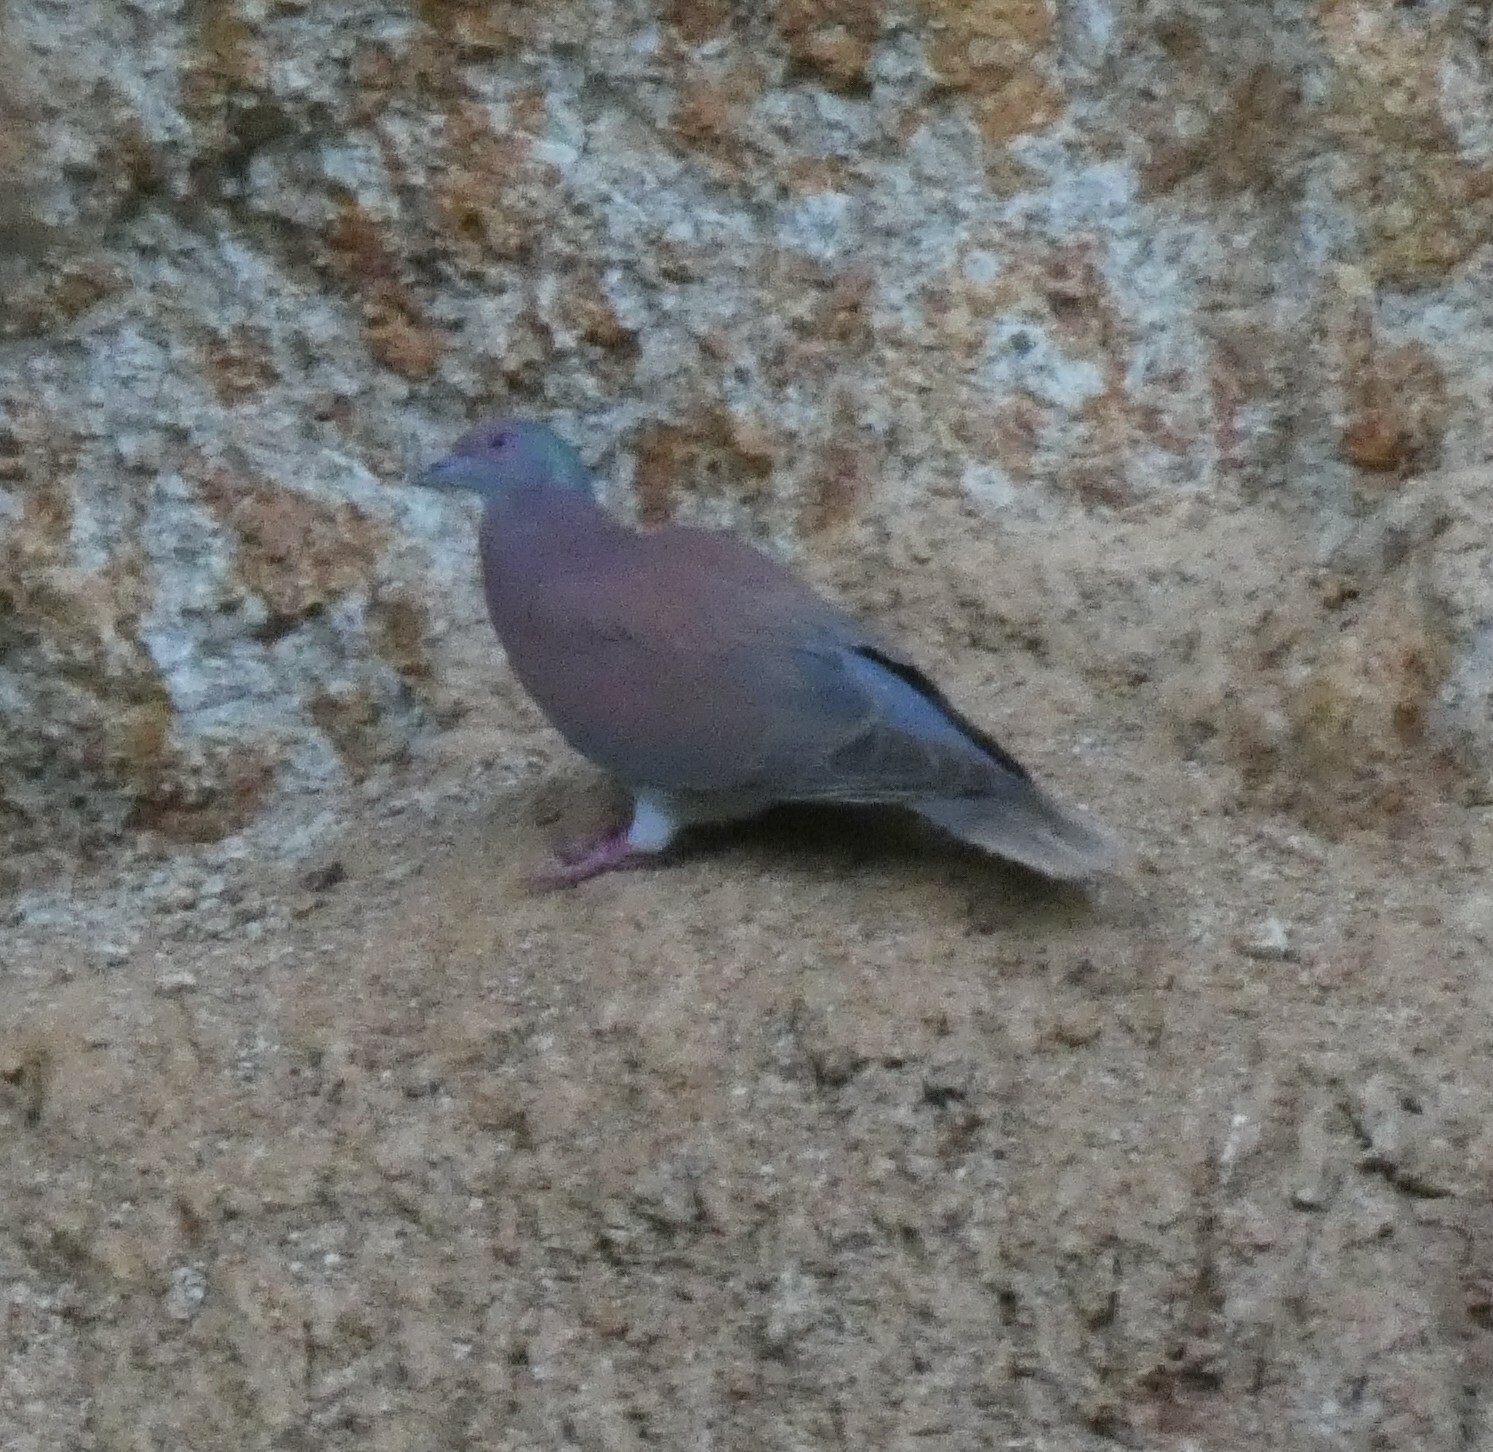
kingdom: Animalia
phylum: Chordata
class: Aves
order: Columbiformes
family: Columbidae
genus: Patagioenas
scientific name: Patagioenas cayennensis
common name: Pale-vented pigeon
